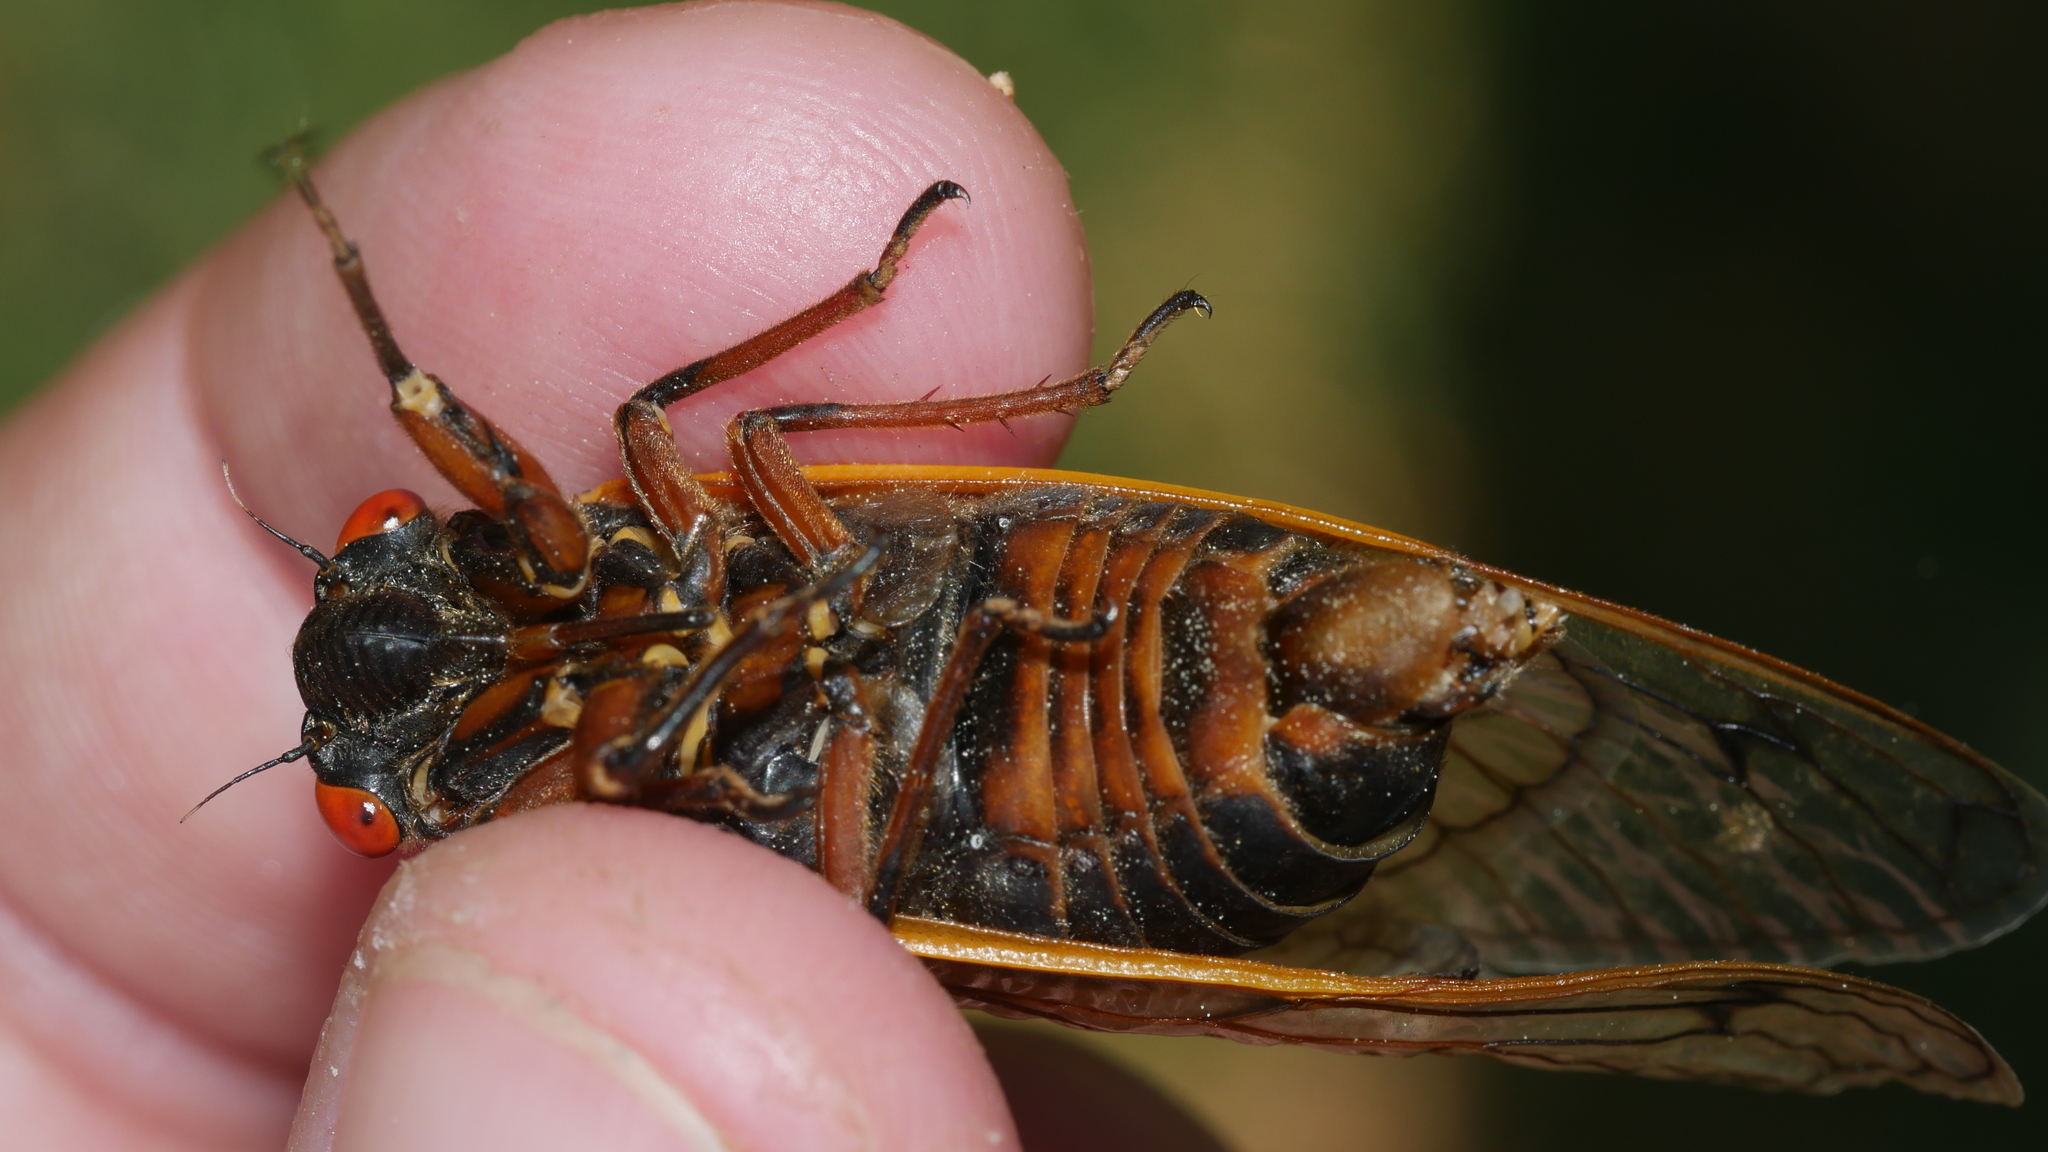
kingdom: Animalia
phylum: Arthropoda
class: Insecta
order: Hemiptera
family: Cicadidae
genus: Magicicada
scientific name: Magicicada septendecim
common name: Periodical cicada
